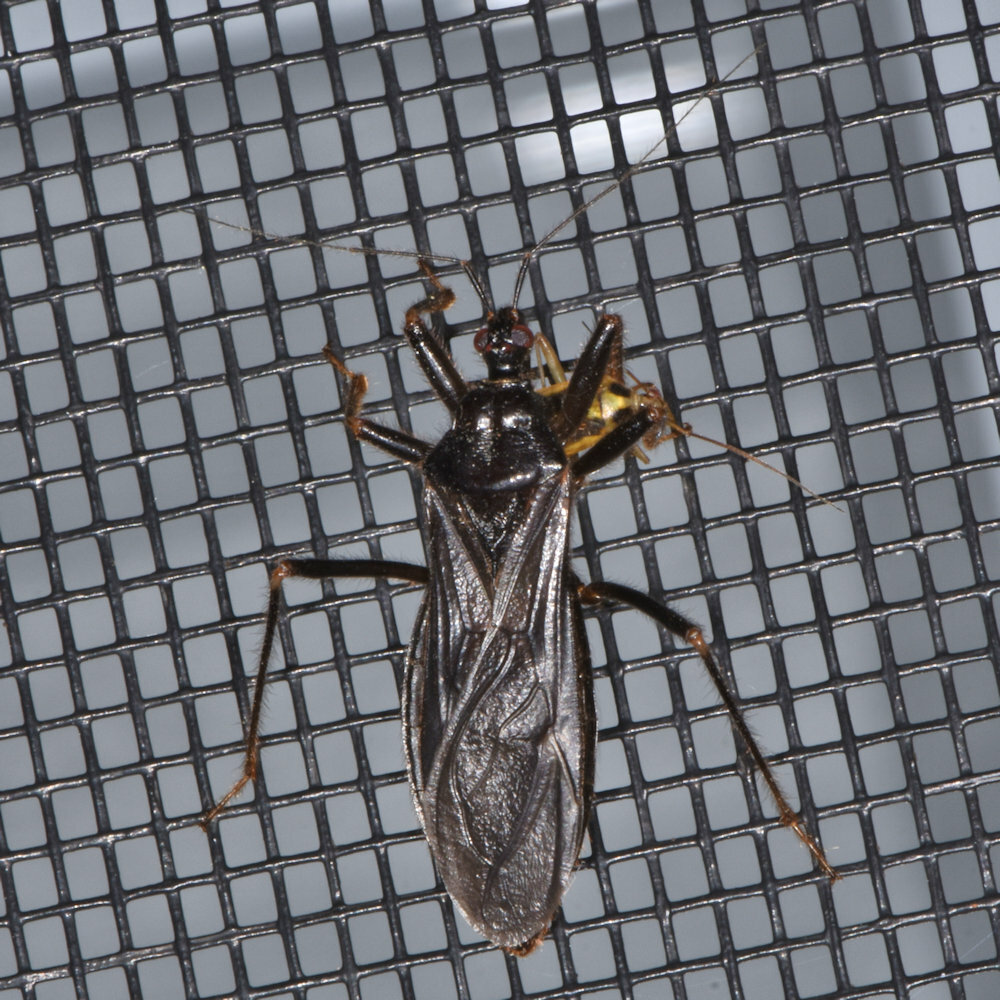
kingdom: Animalia
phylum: Arthropoda
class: Insecta
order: Hemiptera
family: Reduviidae
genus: Reduvius
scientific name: Reduvius personatus
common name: Masked hunter
